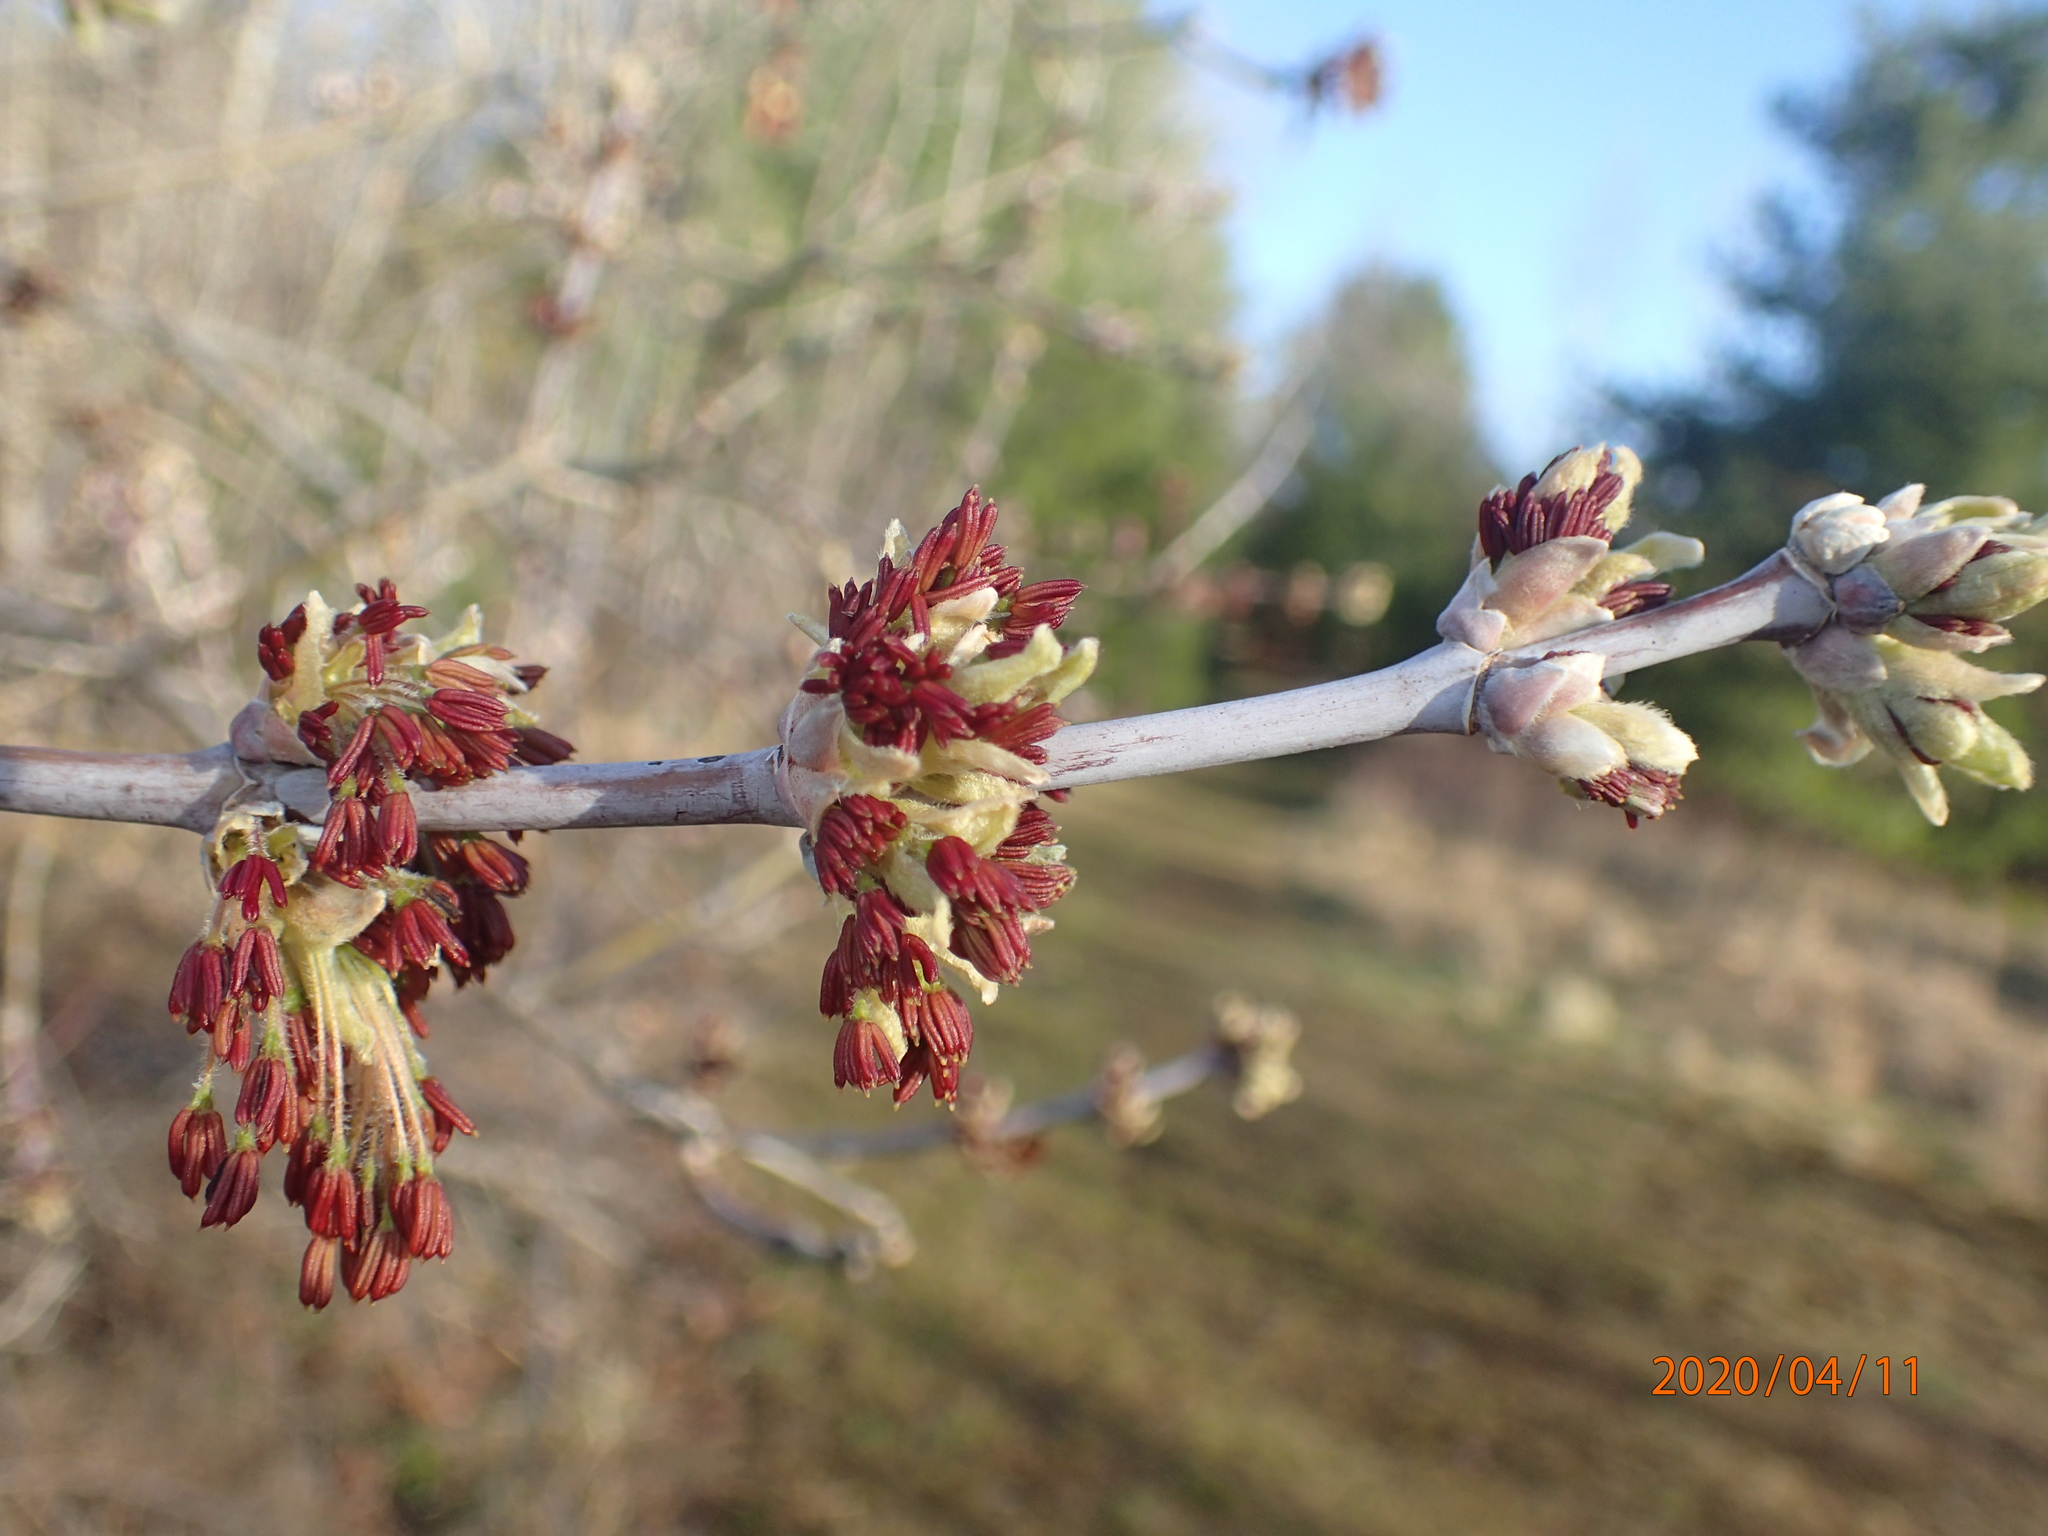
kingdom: Plantae
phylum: Tracheophyta
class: Magnoliopsida
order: Sapindales
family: Sapindaceae
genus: Acer
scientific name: Acer negundo
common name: Ashleaf maple
